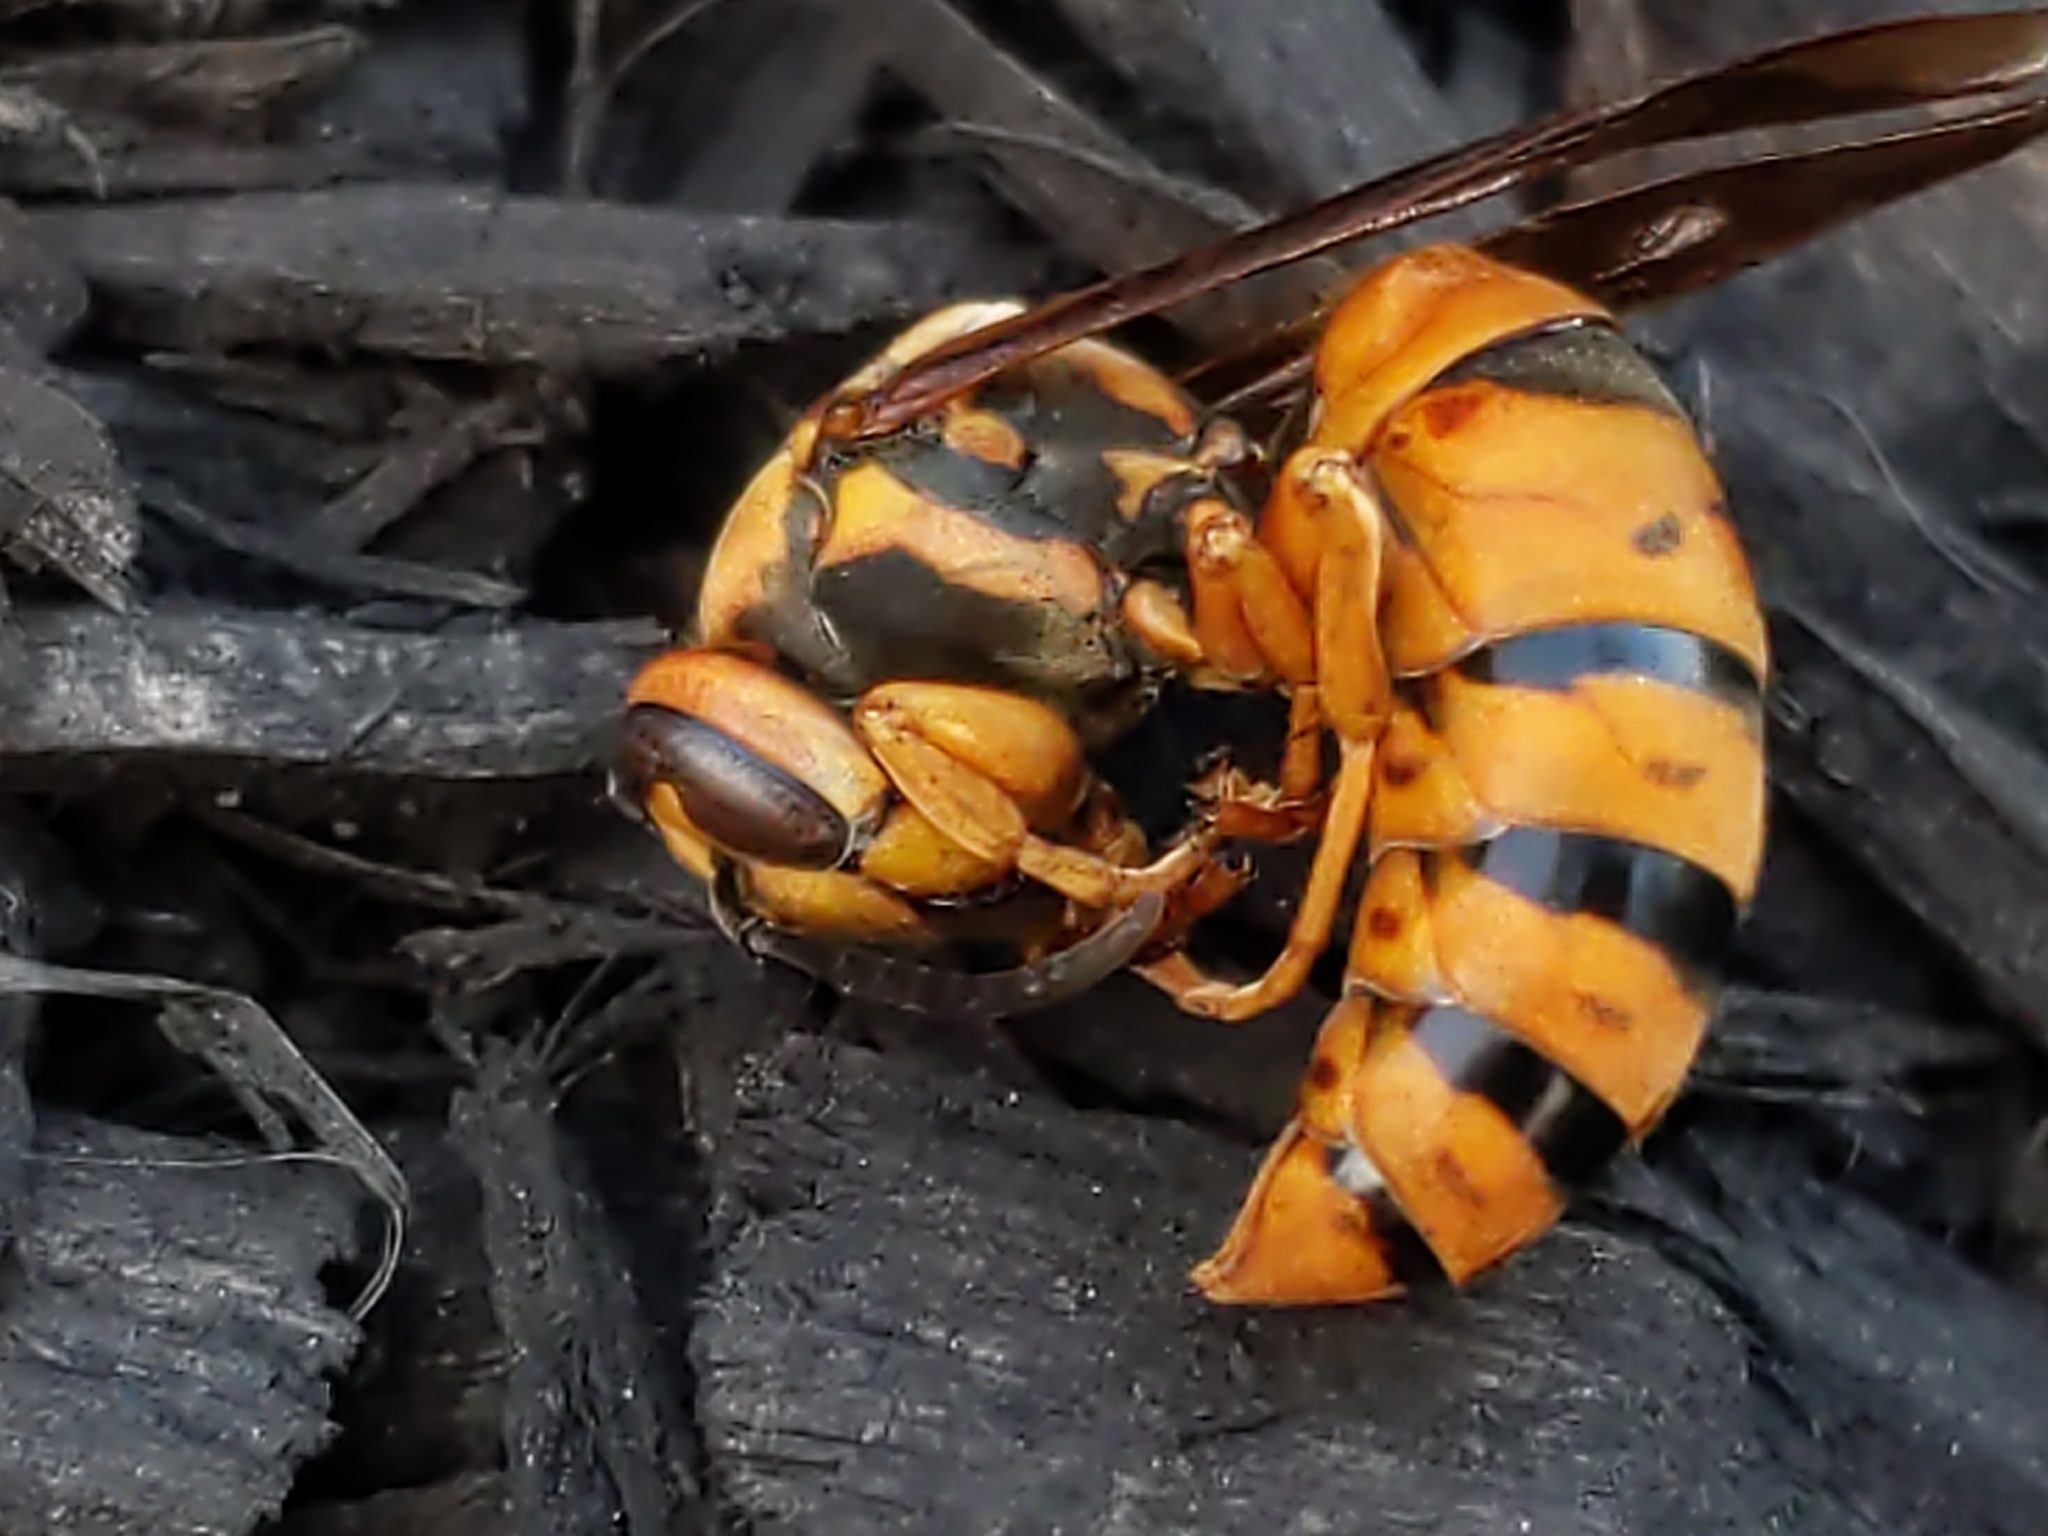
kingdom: Animalia
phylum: Arthropoda
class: Insecta
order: Hymenoptera
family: Vespidae
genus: Vespula
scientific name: Vespula squamosa
